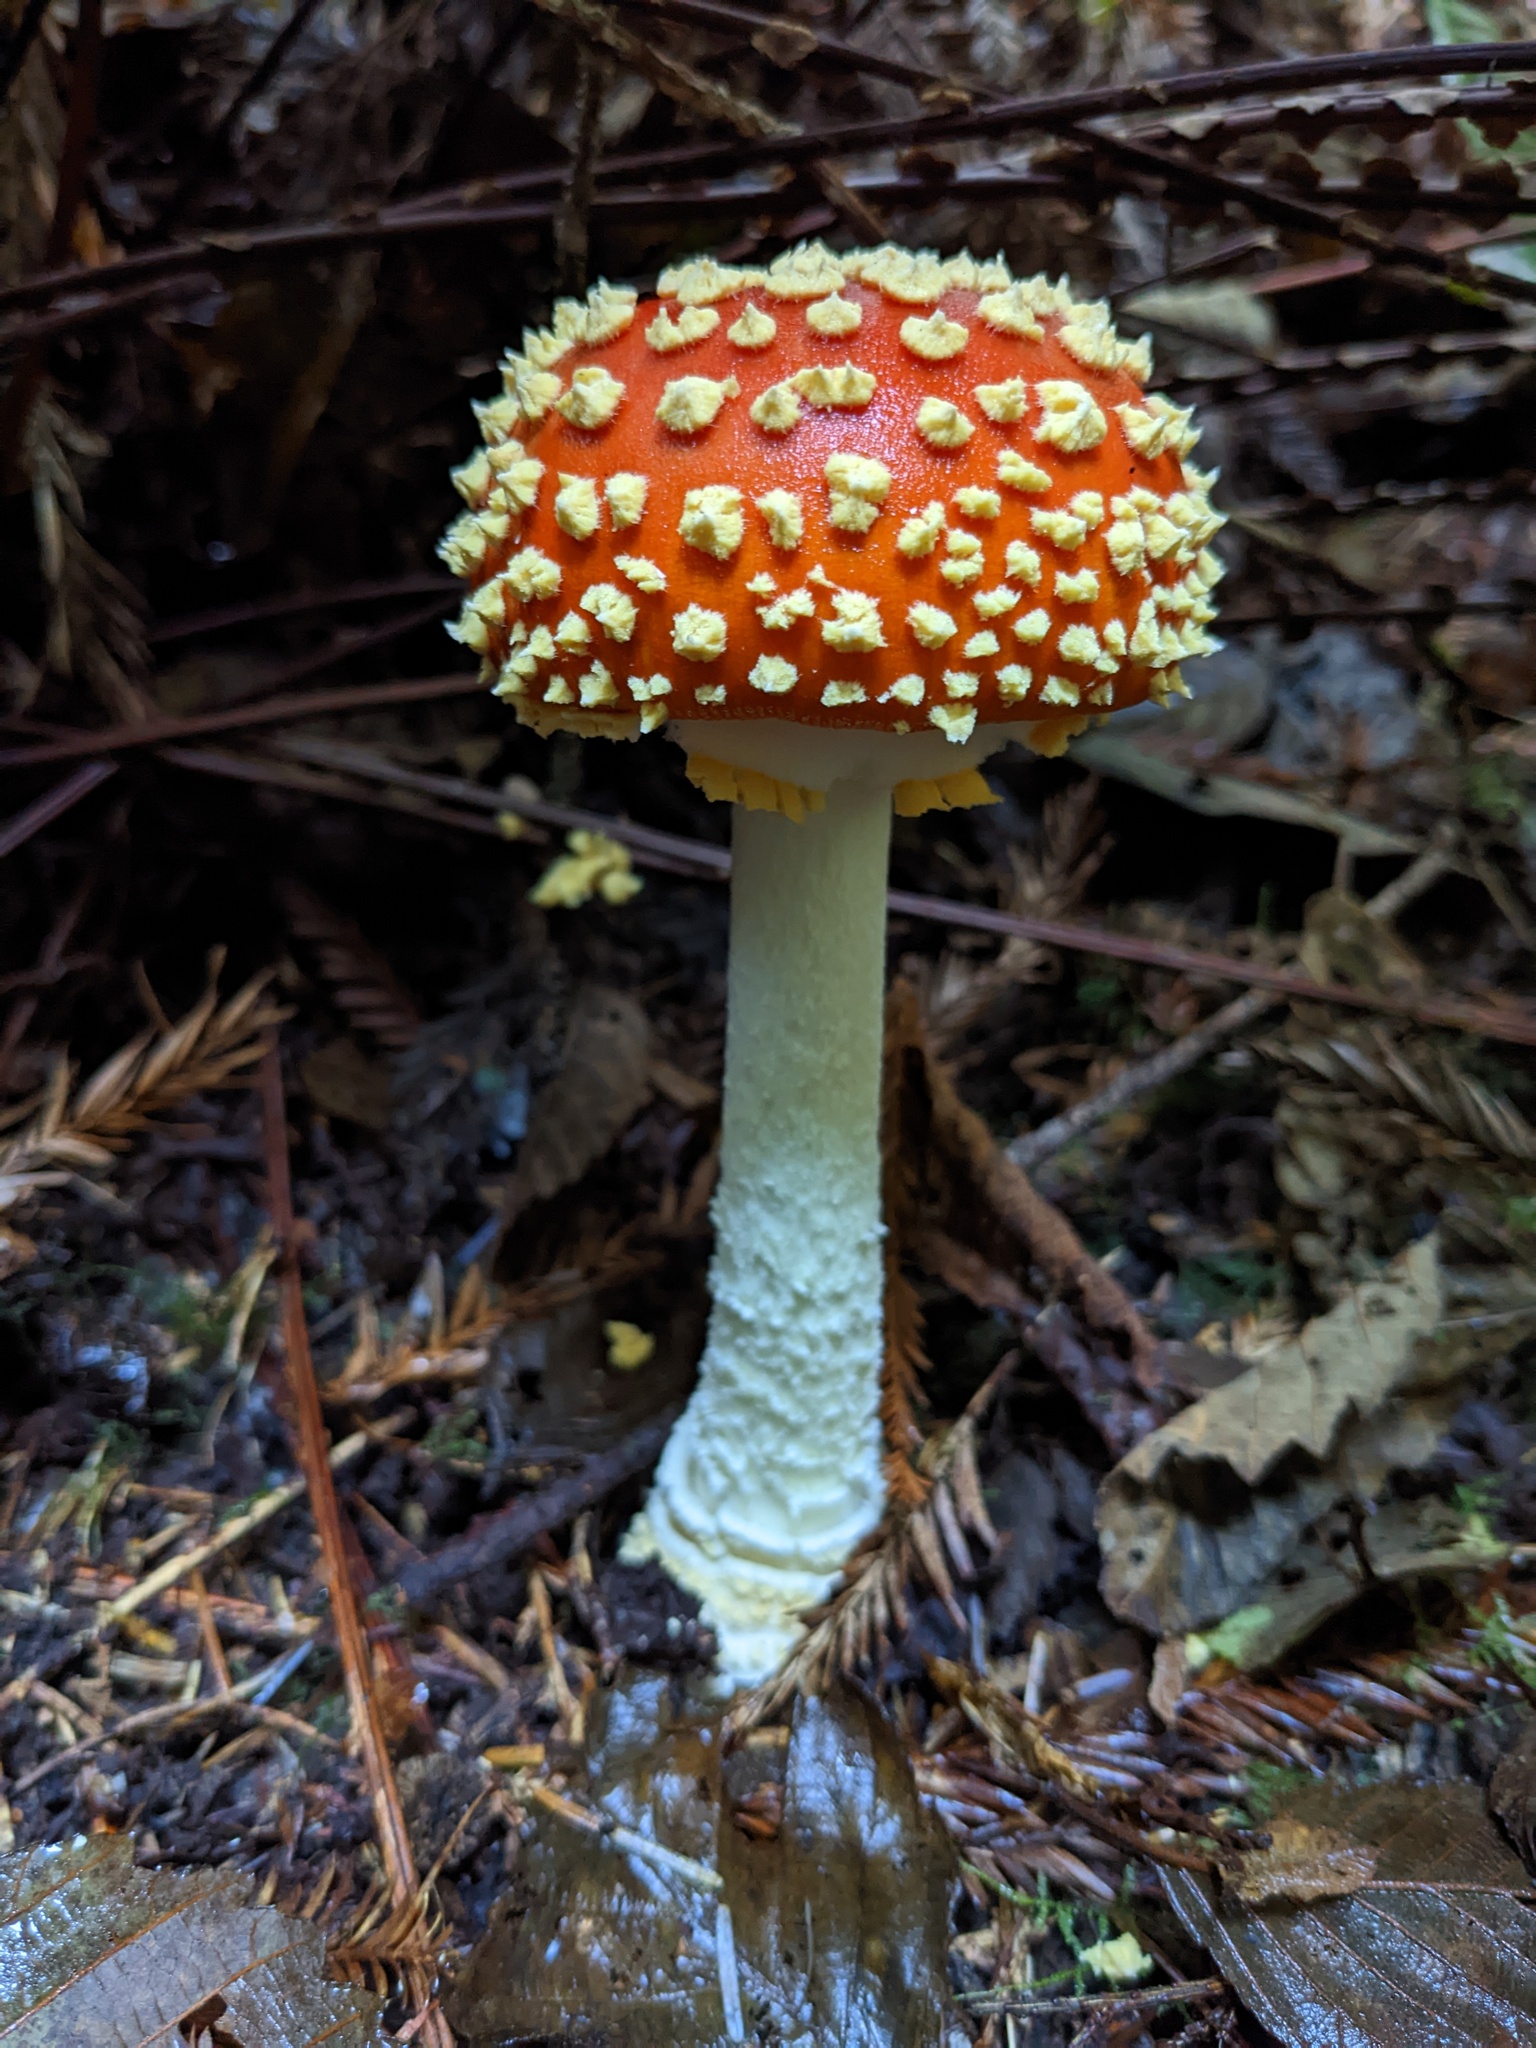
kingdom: Fungi
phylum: Basidiomycota
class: Agaricomycetes
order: Agaricales
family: Amanitaceae
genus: Amanita
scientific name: Amanita muscaria
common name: Fly agaric
